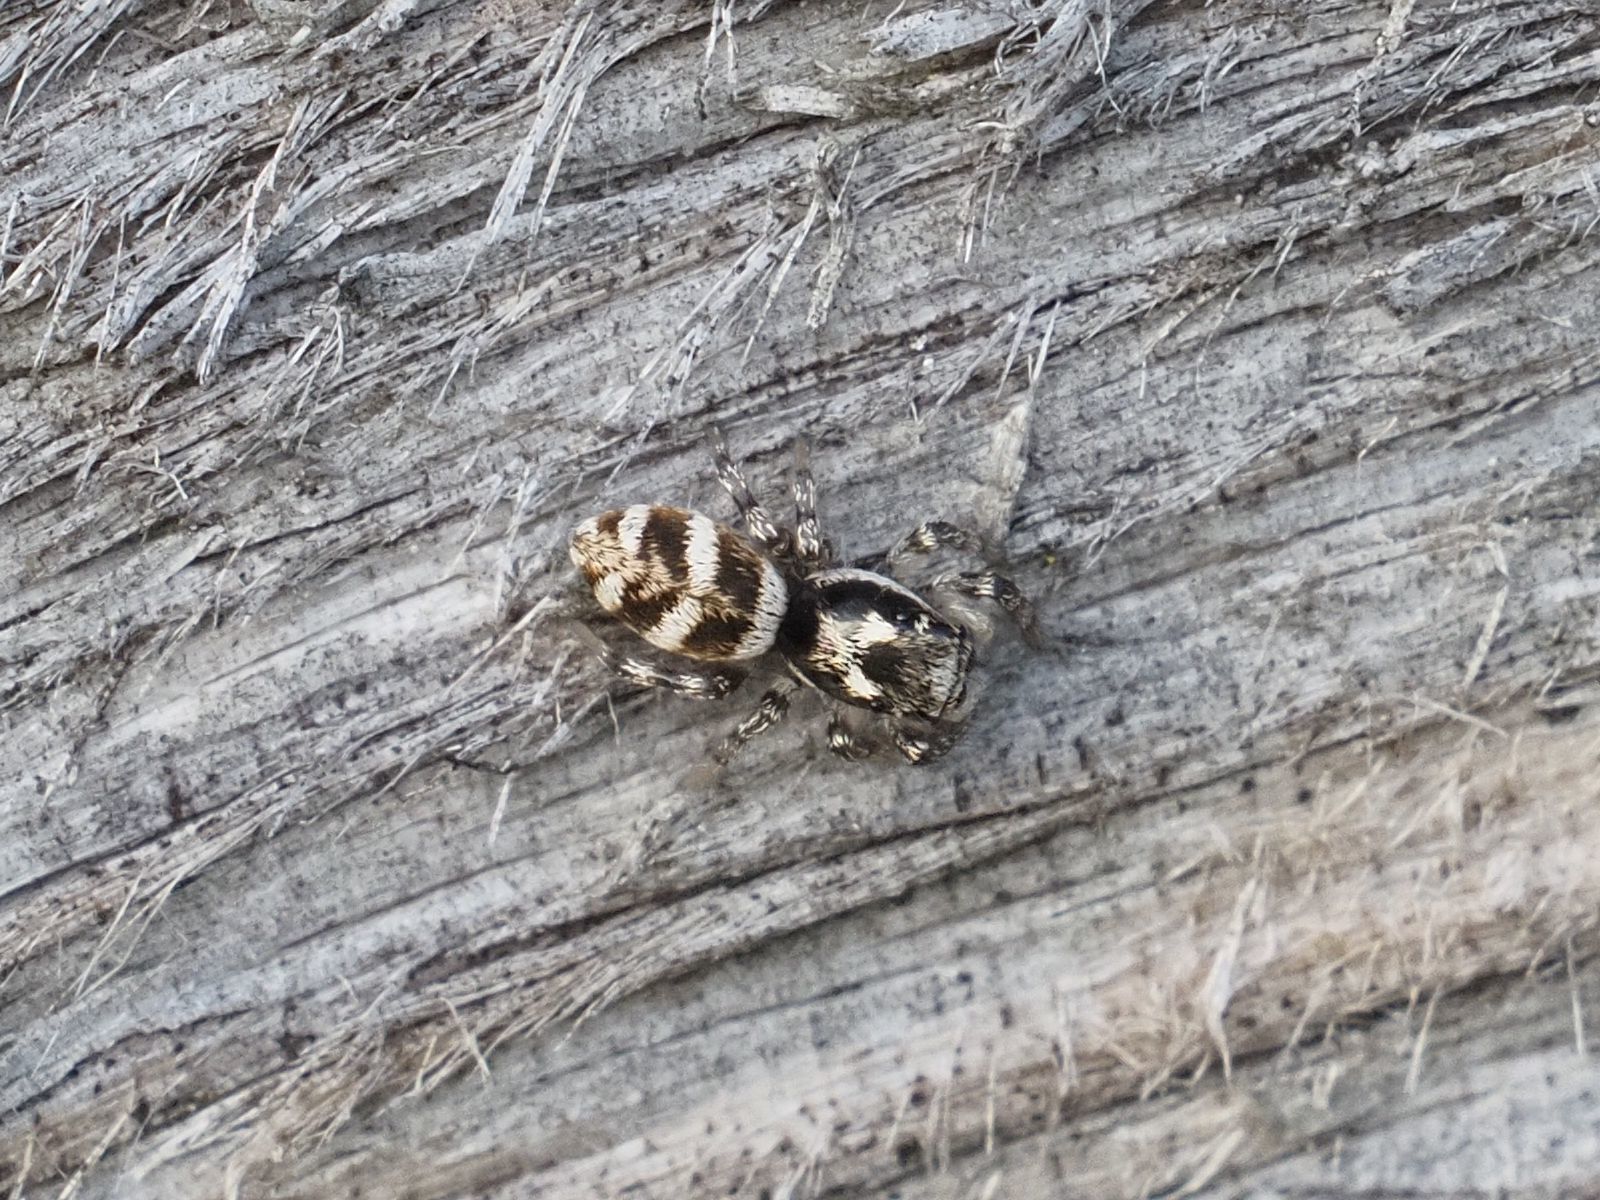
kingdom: Animalia
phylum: Arthropoda
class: Arachnida
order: Araneae
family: Salticidae
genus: Salticus
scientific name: Salticus scenicus
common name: Zebra jumper
